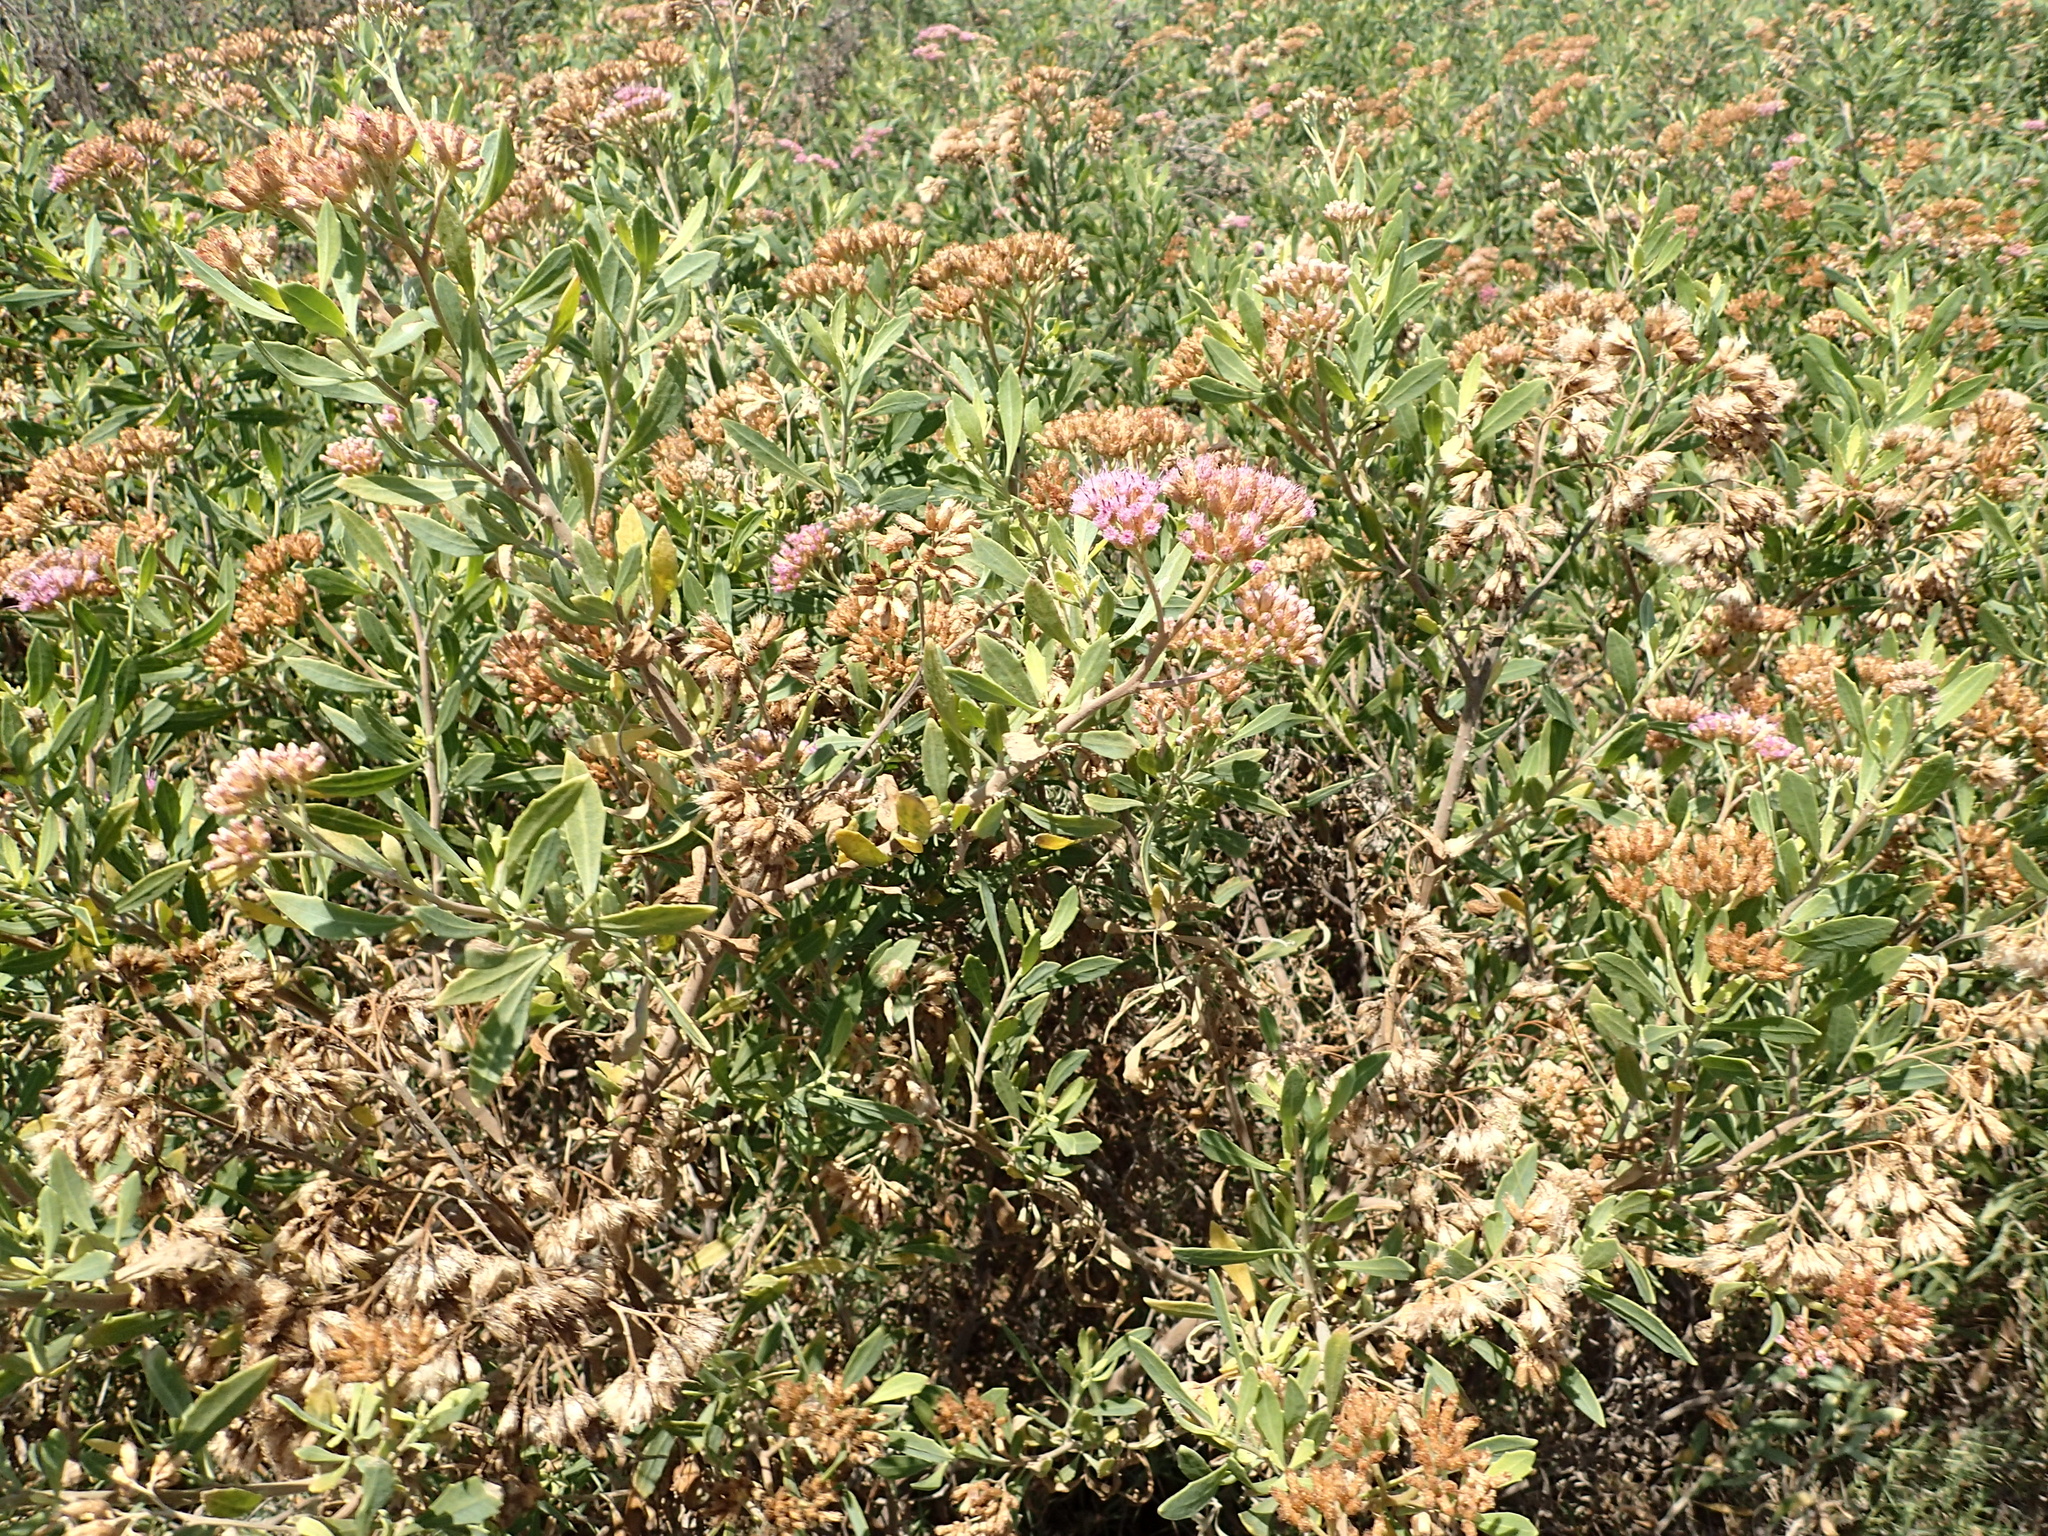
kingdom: Plantae
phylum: Tracheophyta
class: Magnoliopsida
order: Asterales
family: Asteraceae
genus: Tessaria
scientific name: Tessaria absinthioides
